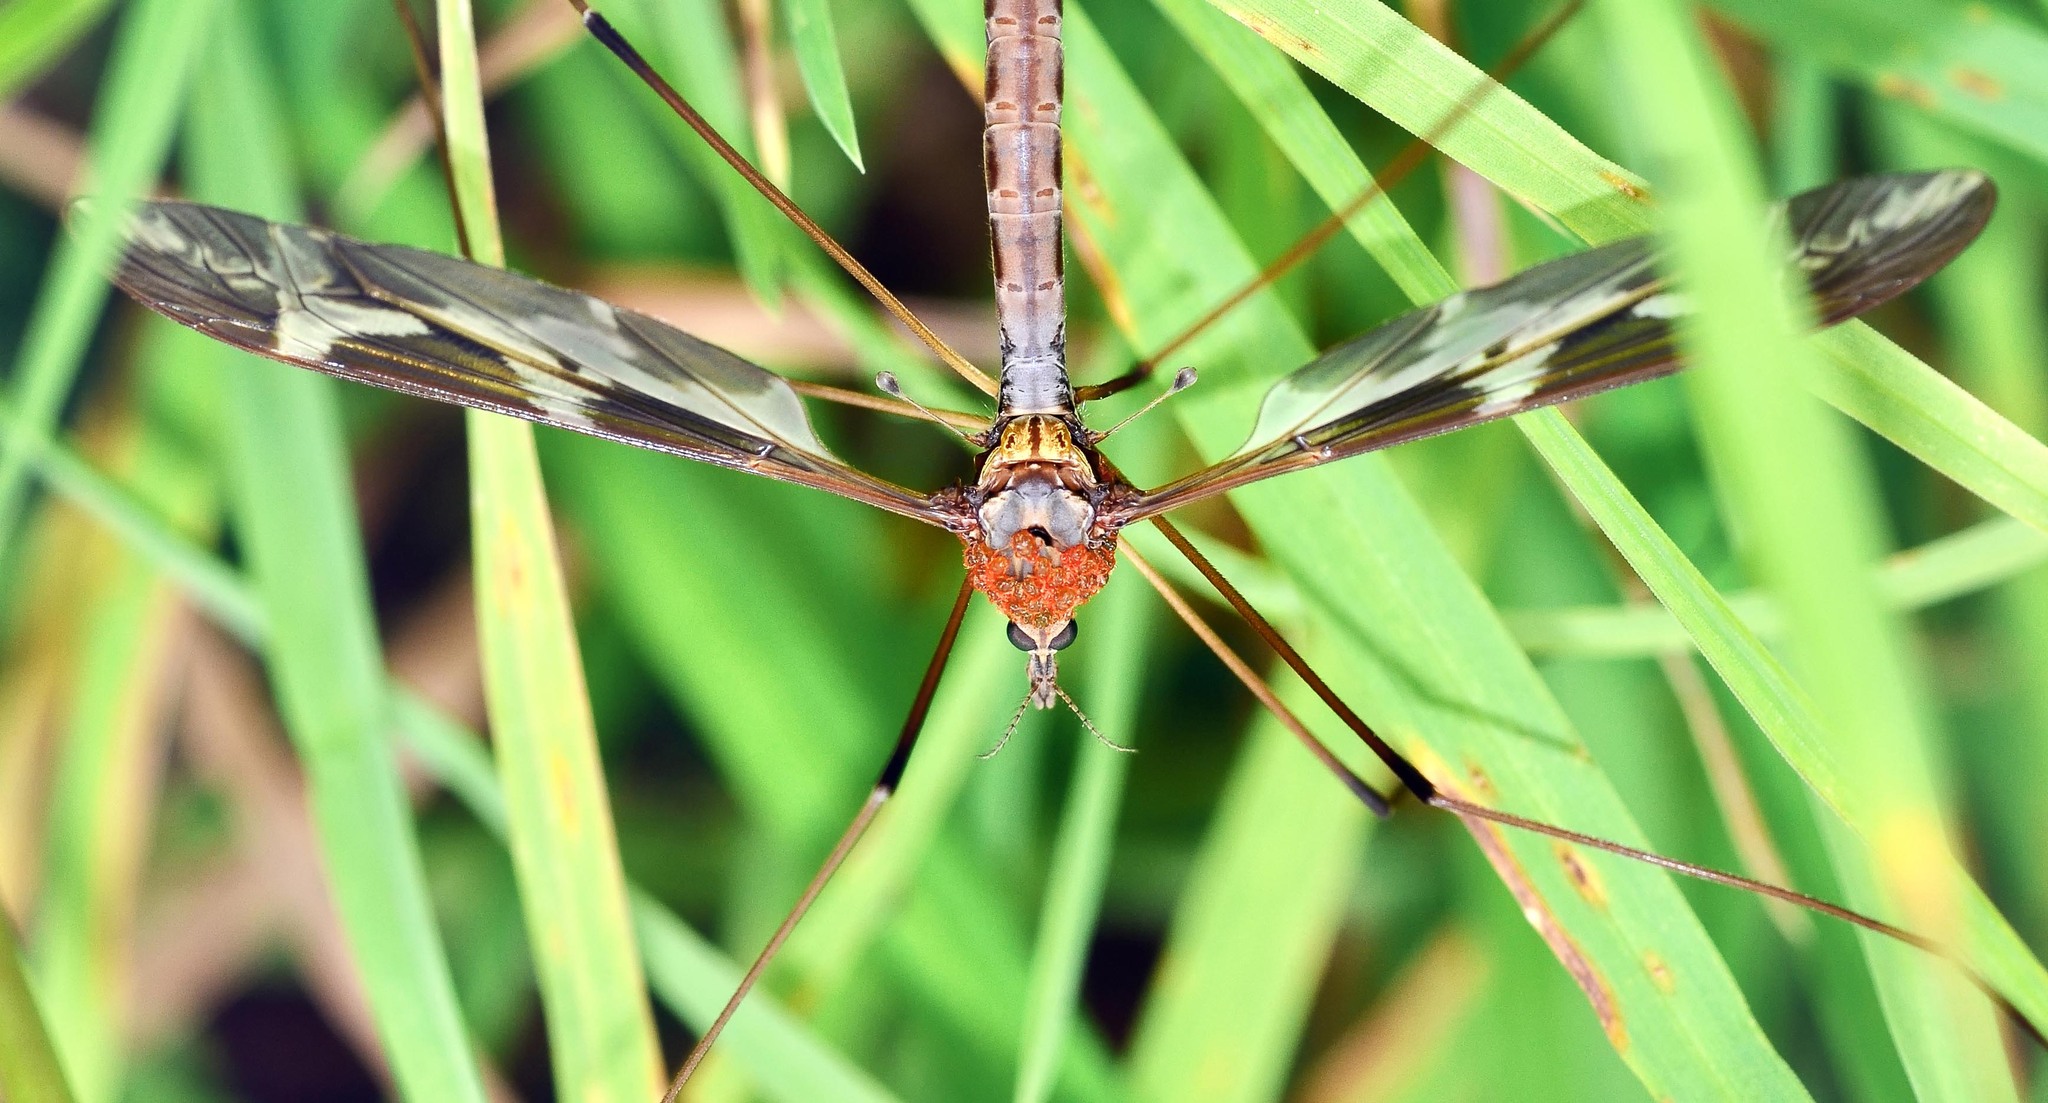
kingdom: Animalia
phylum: Arthropoda
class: Insecta
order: Diptera
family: Tipulidae
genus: Tipula
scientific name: Tipula maxima
